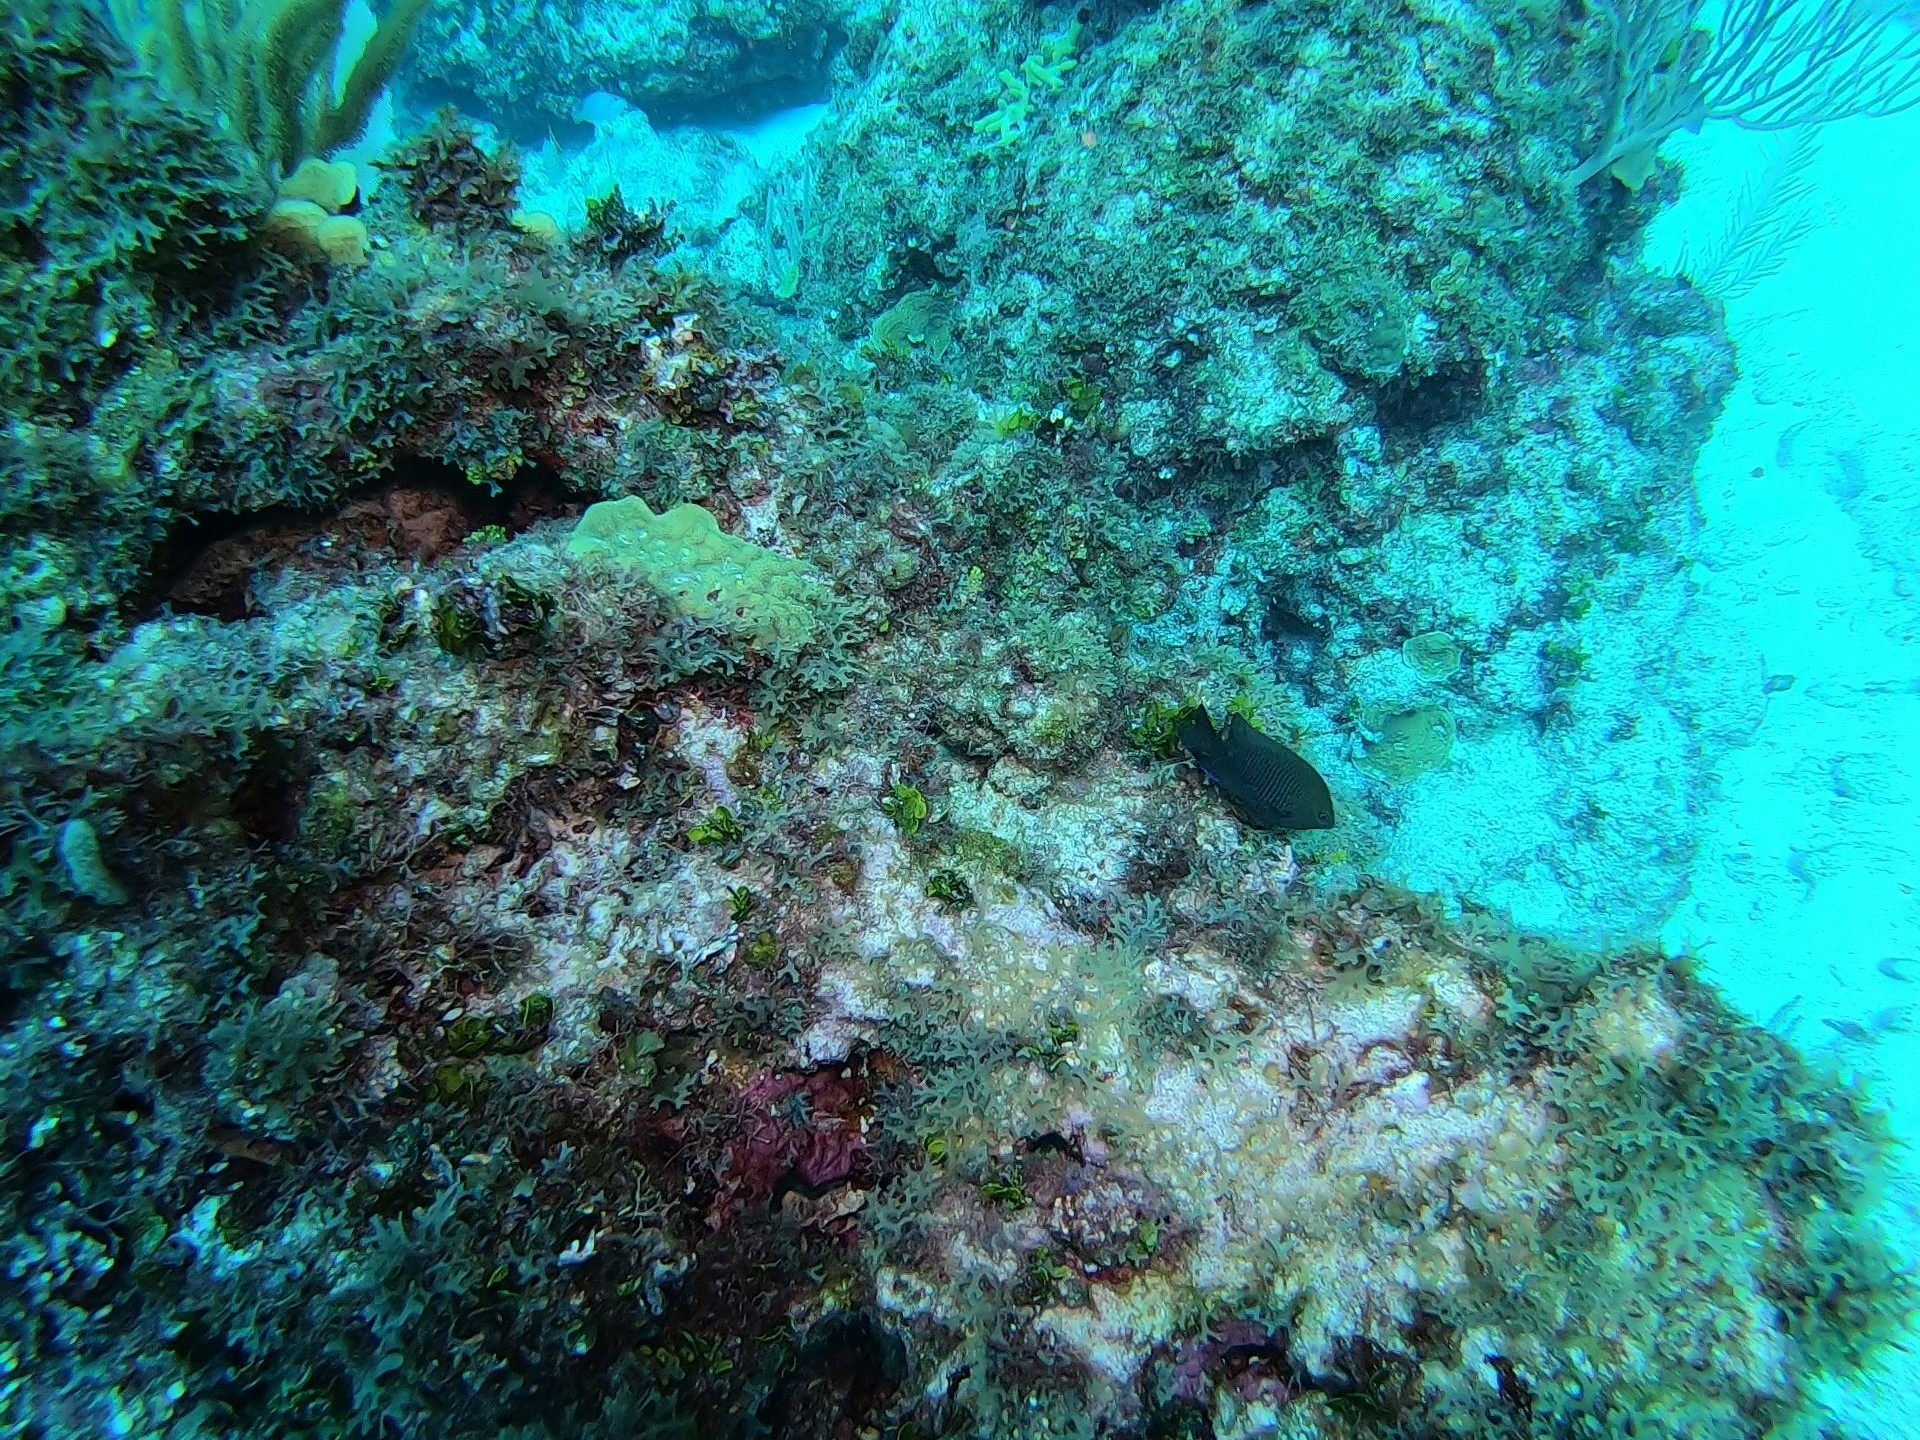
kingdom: Animalia
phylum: Chordata
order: Perciformes
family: Pomacentridae
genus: Stegastes
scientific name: Stegastes diencaeus
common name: Longfin damselfish
